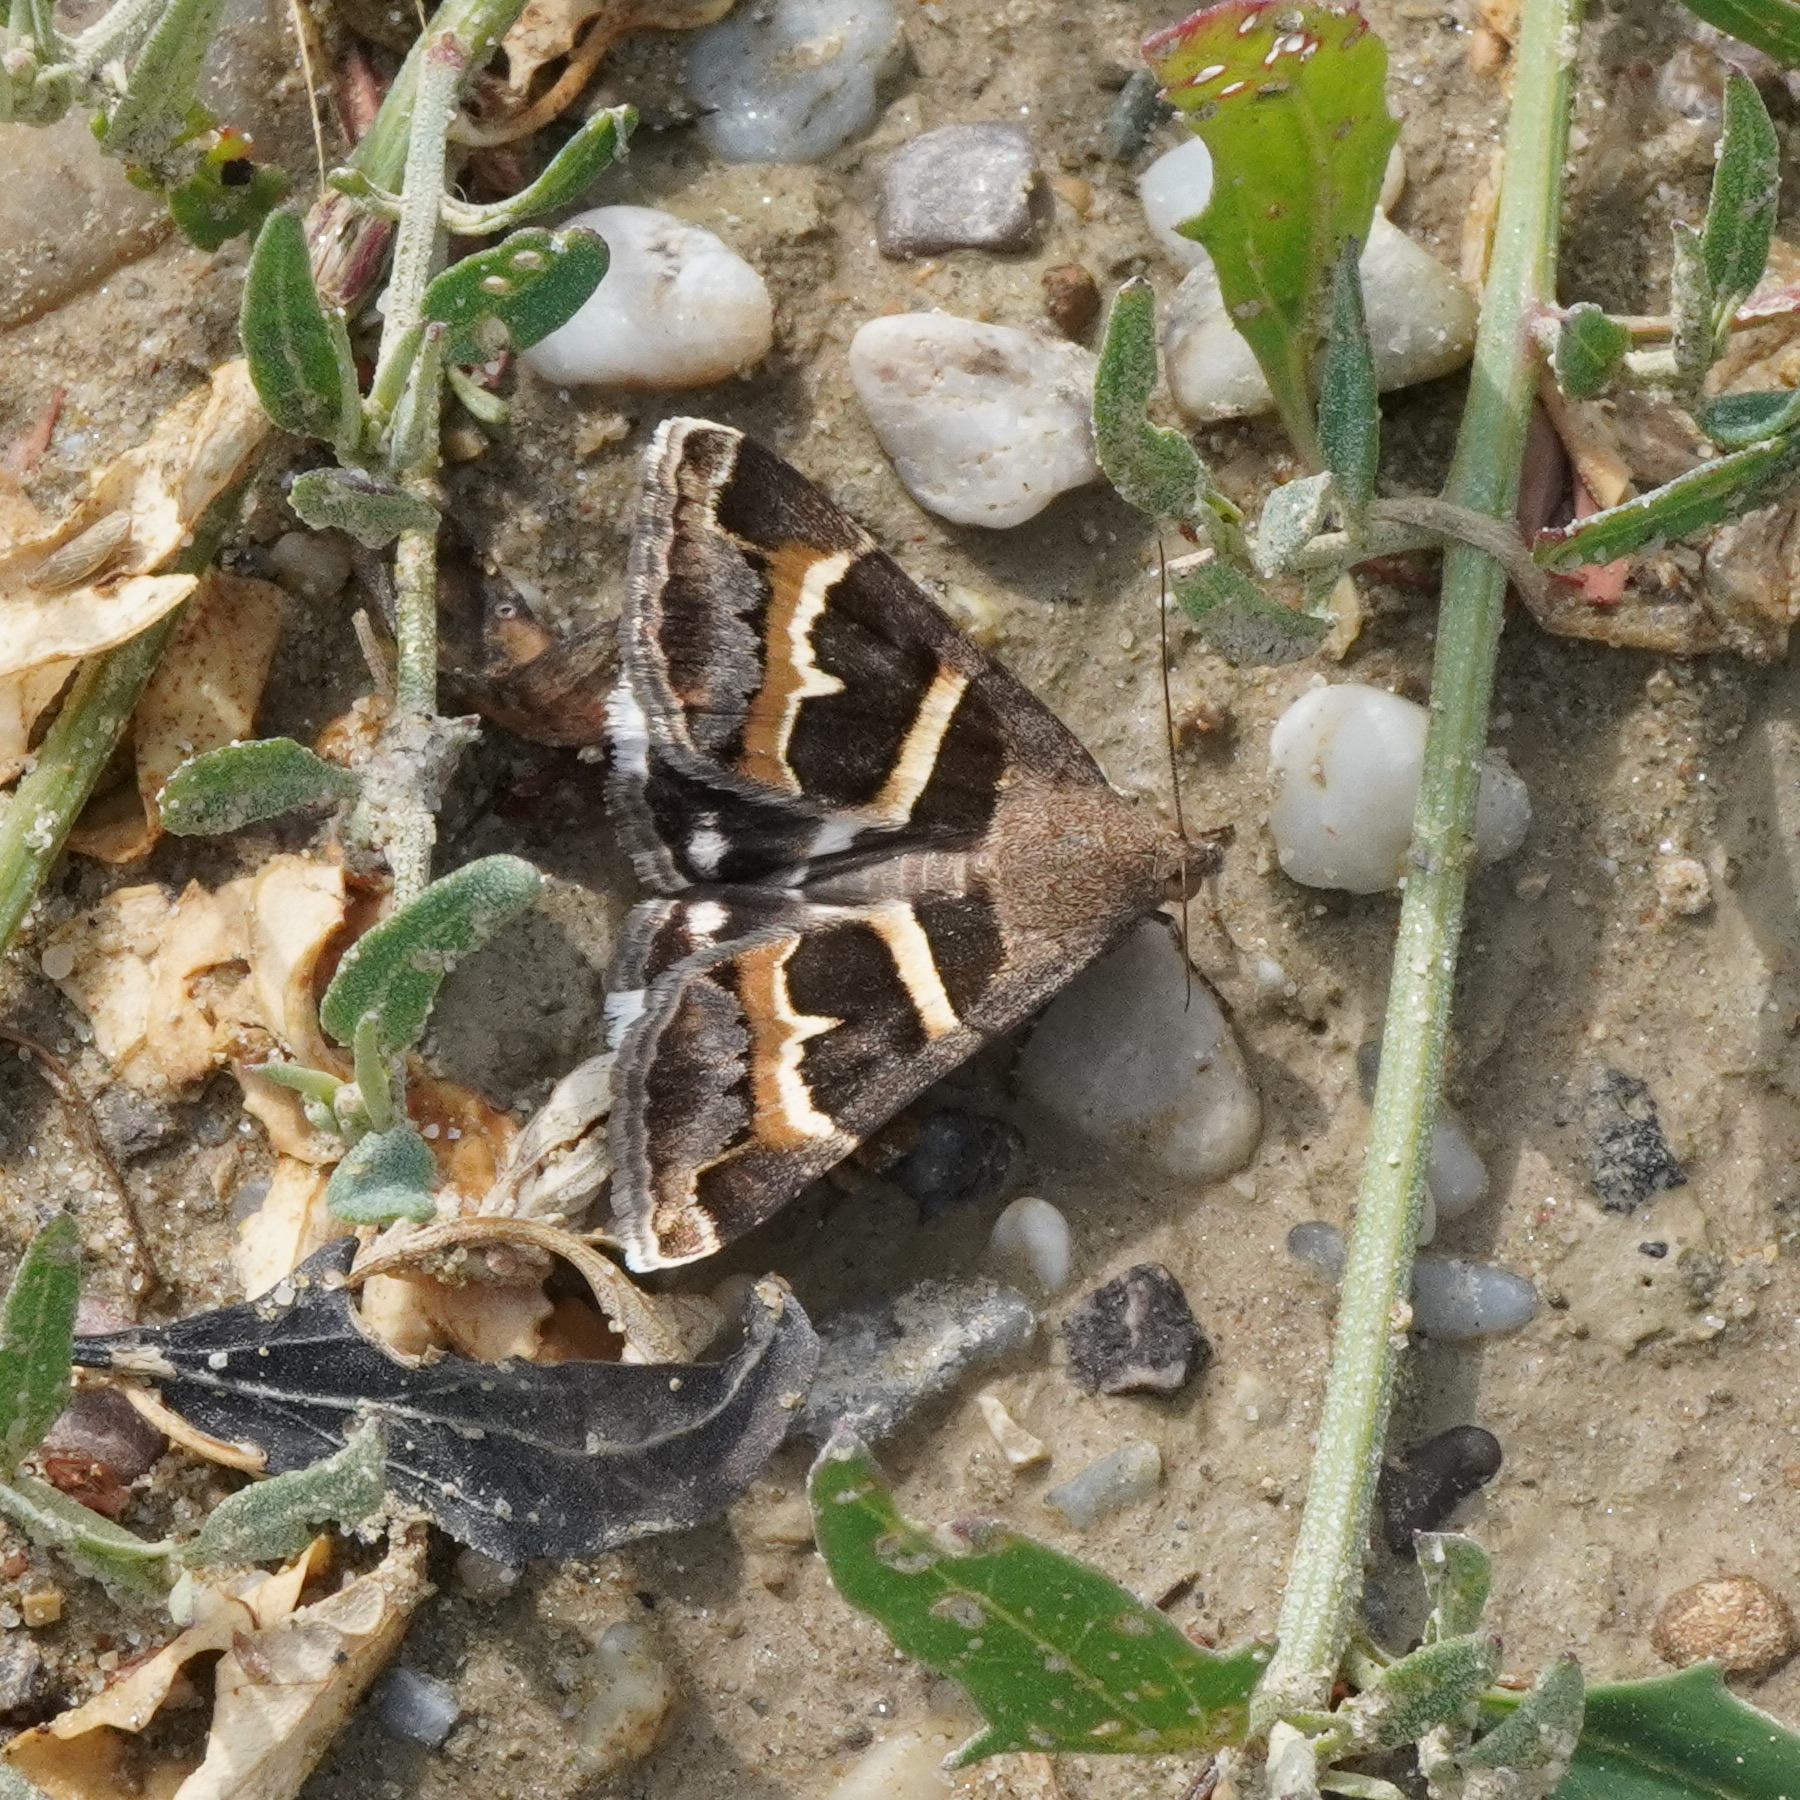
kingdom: Animalia
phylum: Arthropoda
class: Insecta
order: Lepidoptera
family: Erebidae
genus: Grammodes
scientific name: Grammodes stolida
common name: Geometrician
